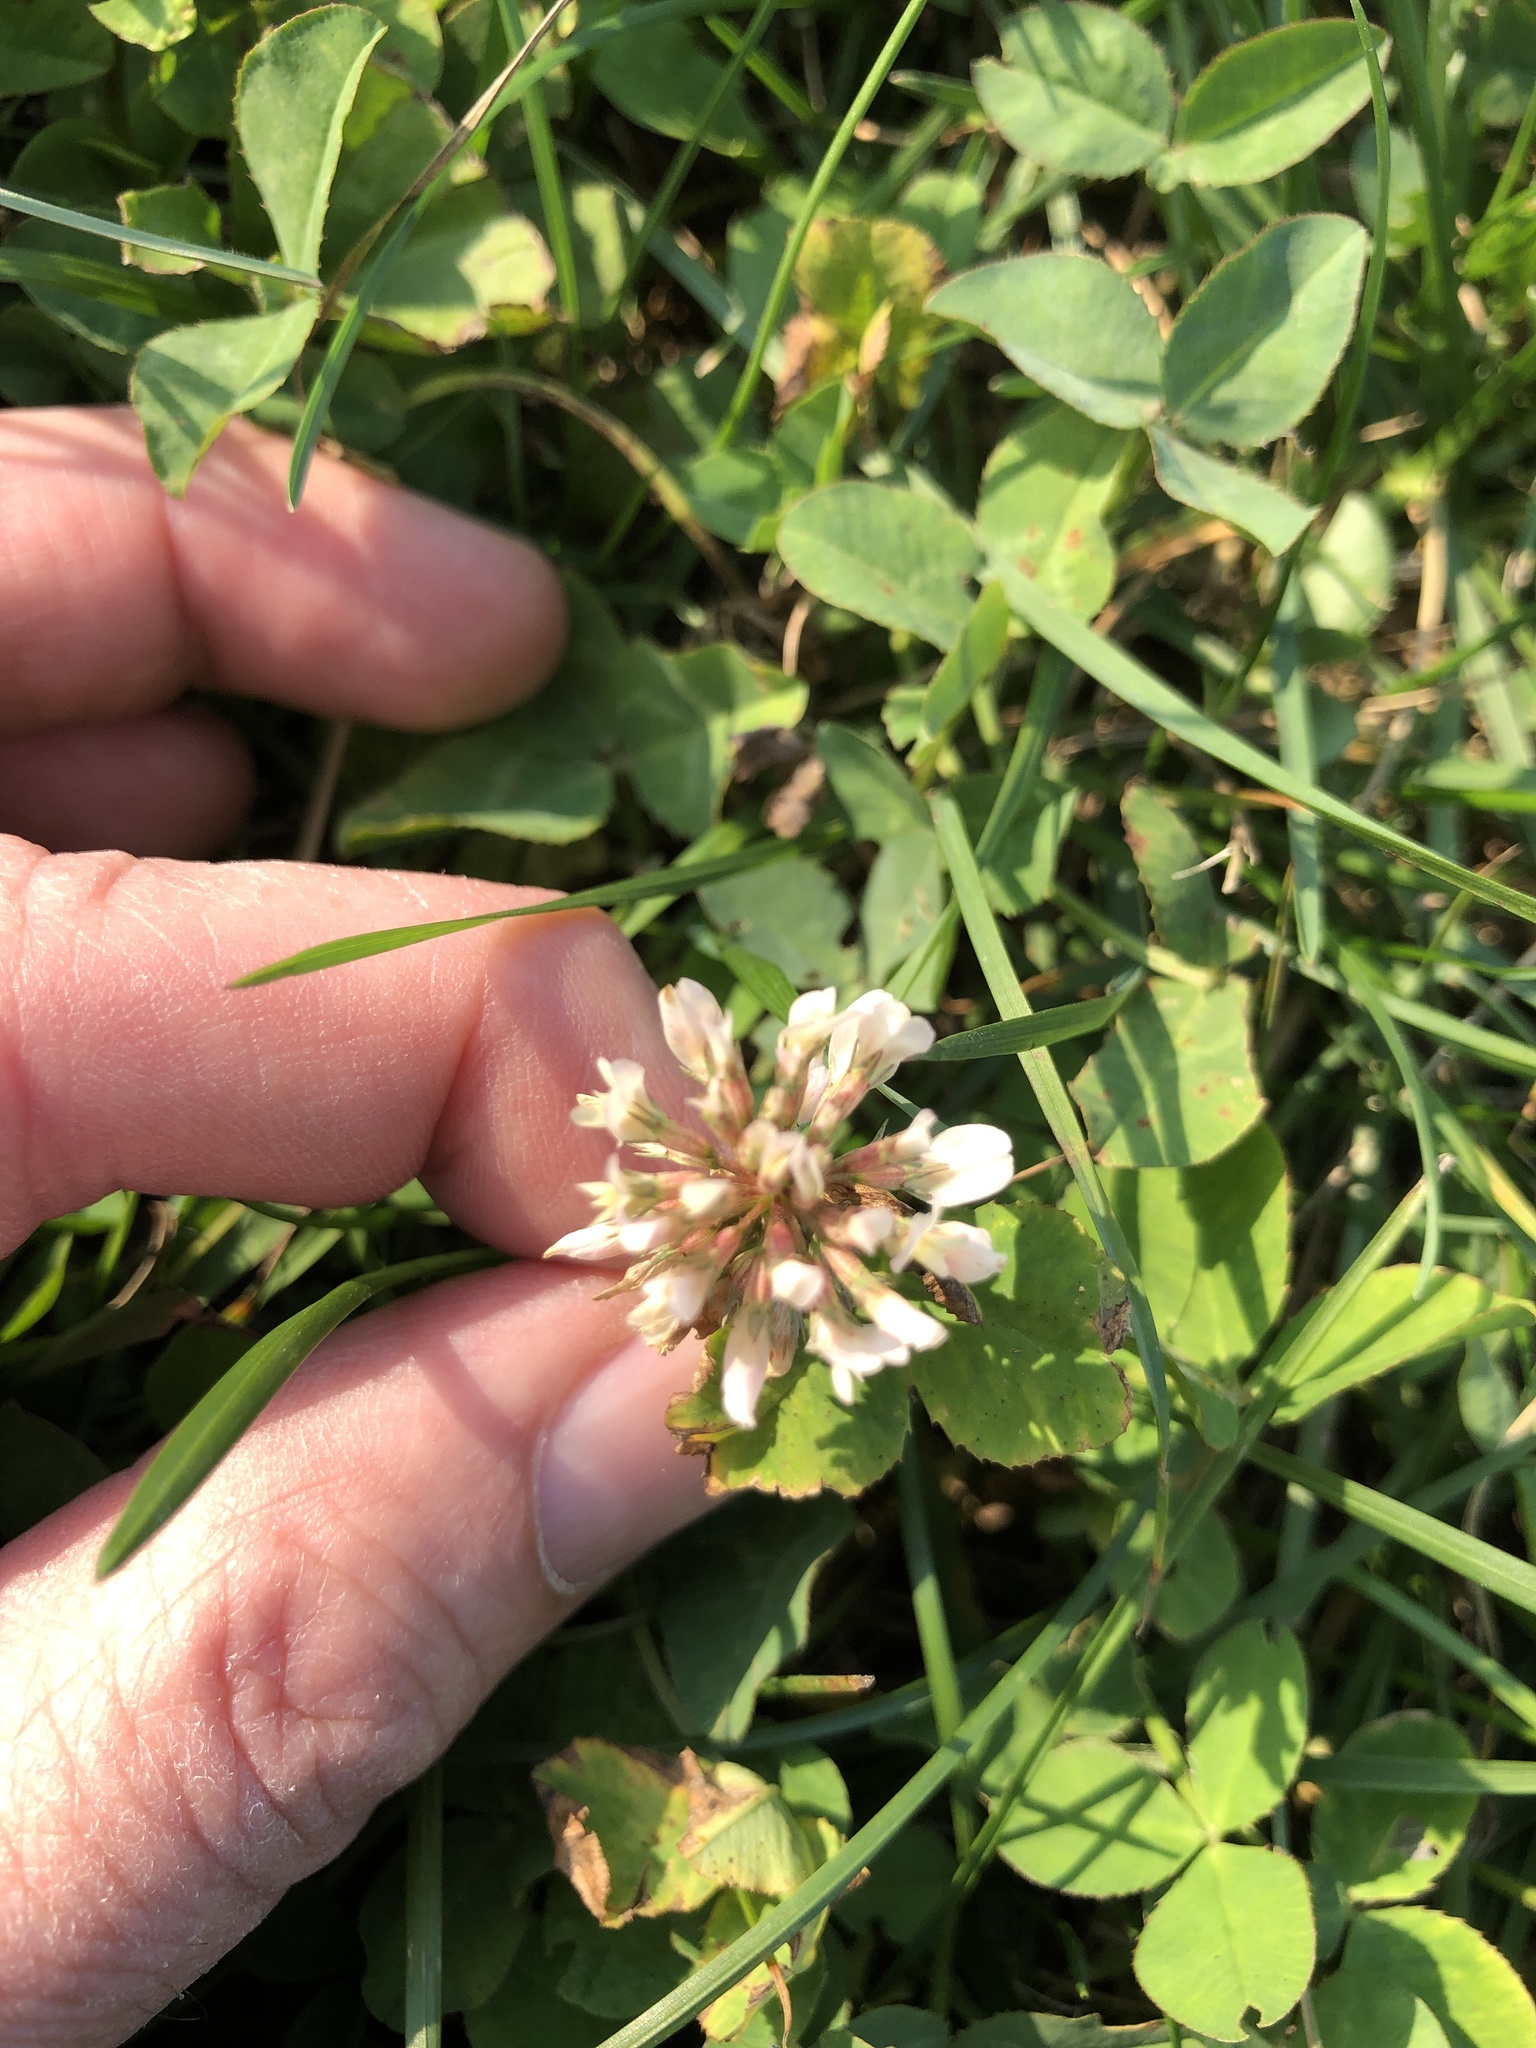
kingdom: Plantae
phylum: Tracheophyta
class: Magnoliopsida
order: Fabales
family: Fabaceae
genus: Trifolium
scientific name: Trifolium repens
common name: White clover
